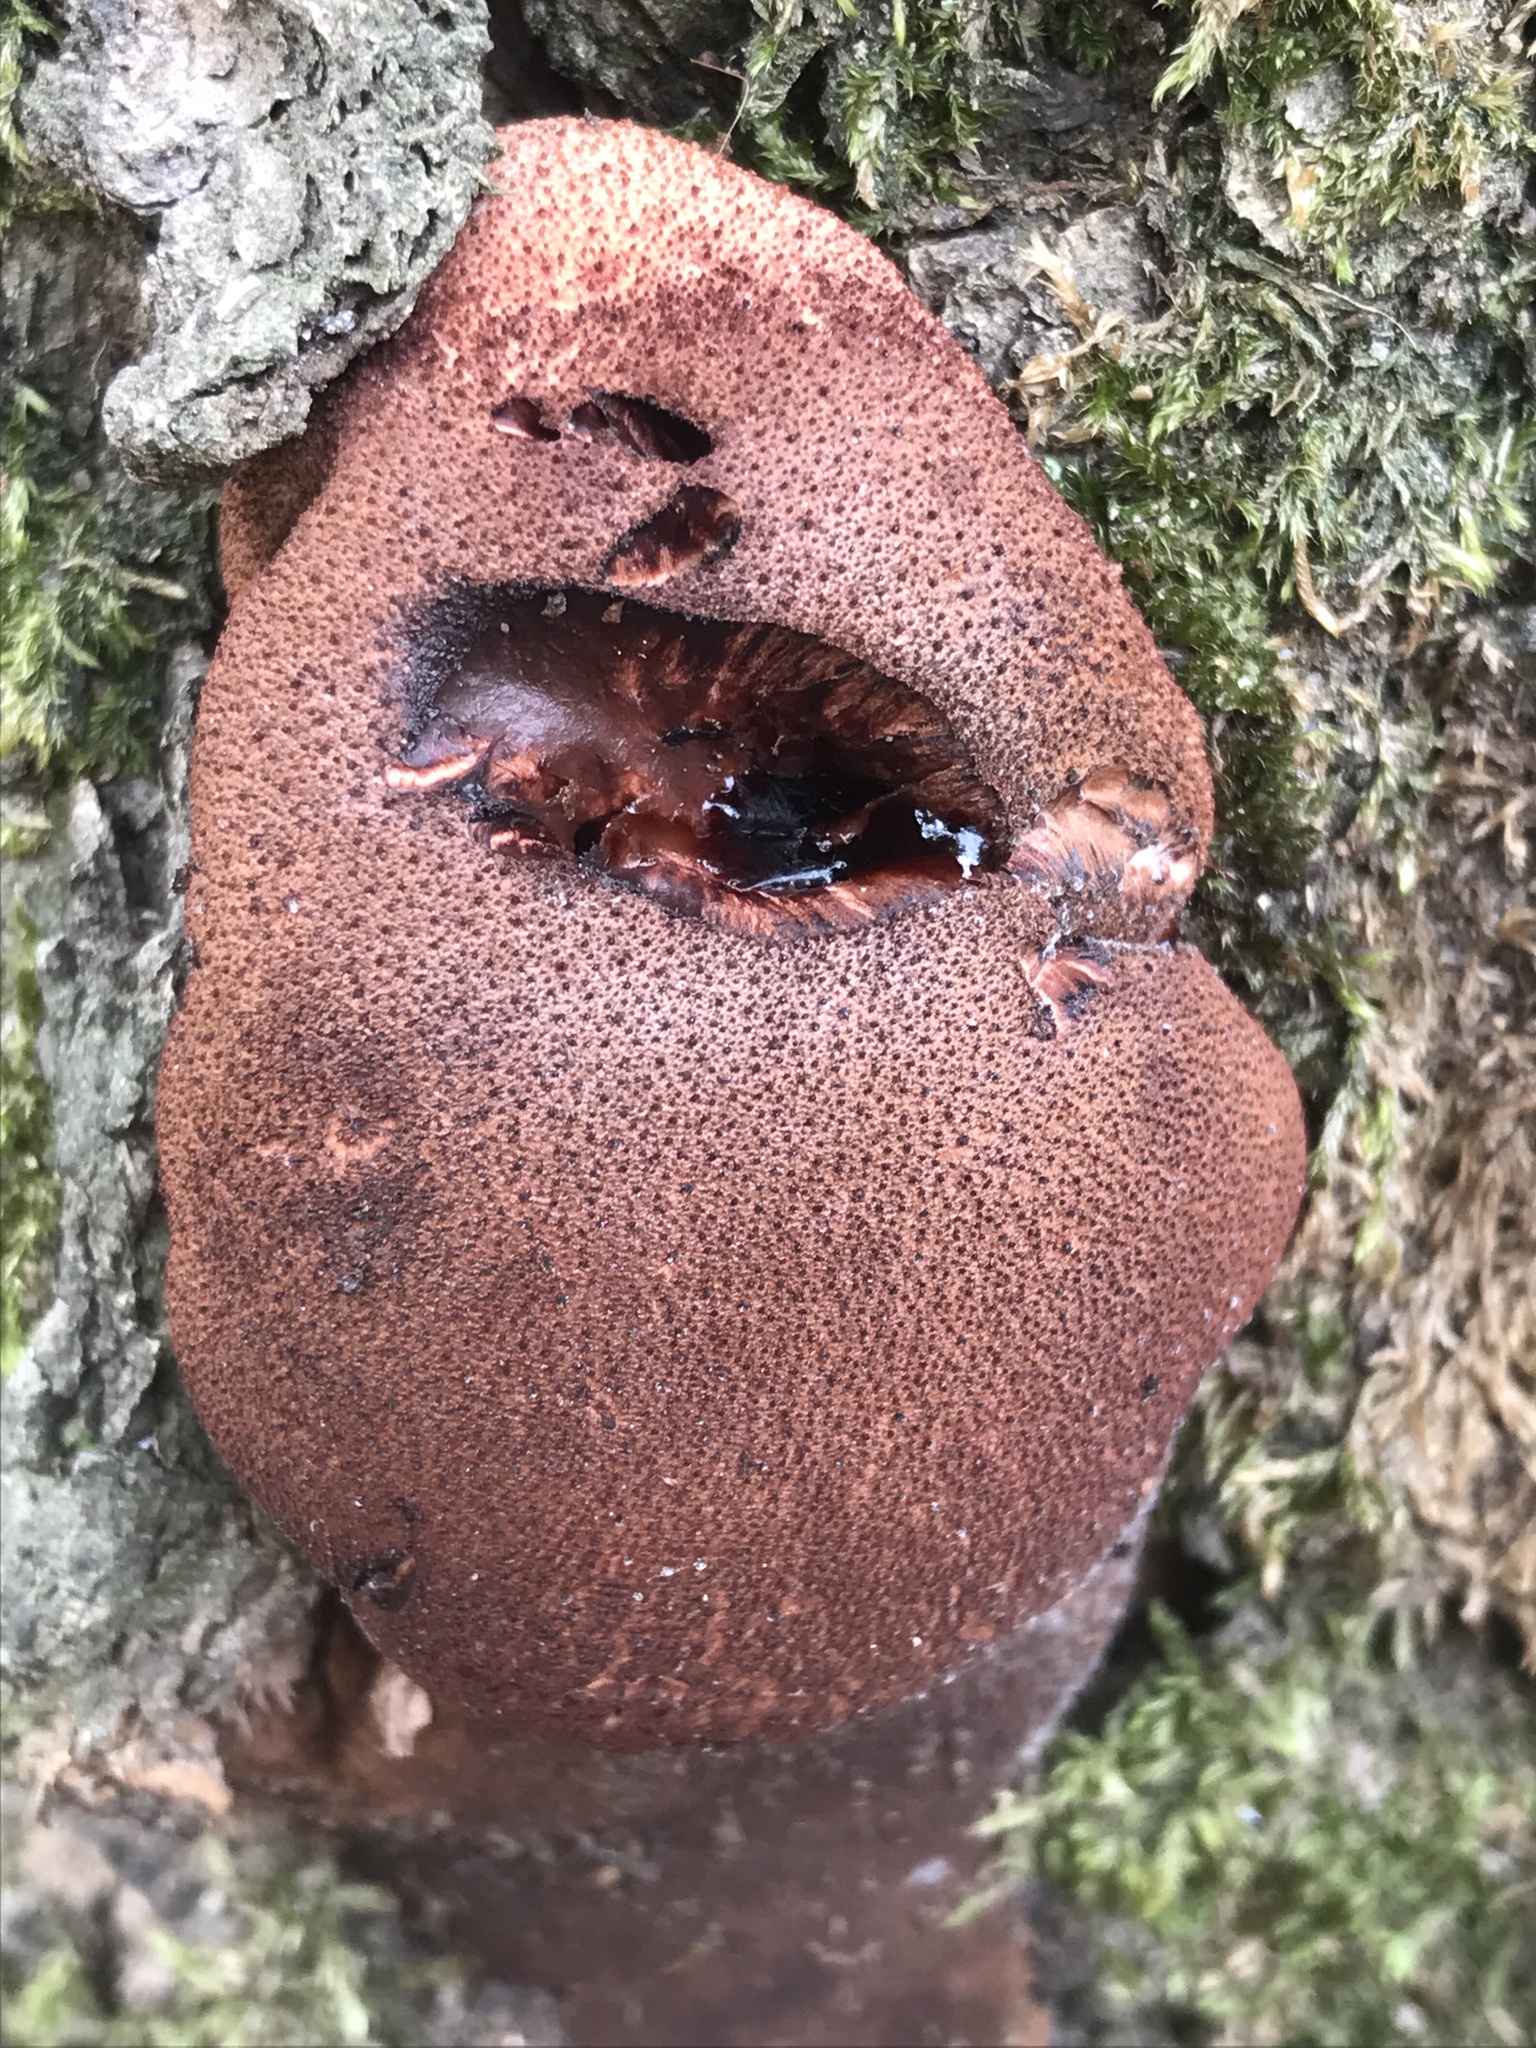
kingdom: Fungi
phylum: Basidiomycota
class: Agaricomycetes
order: Agaricales
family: Fistulinaceae
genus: Fistulina
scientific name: Fistulina hepatica
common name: Beef-steak fungus
